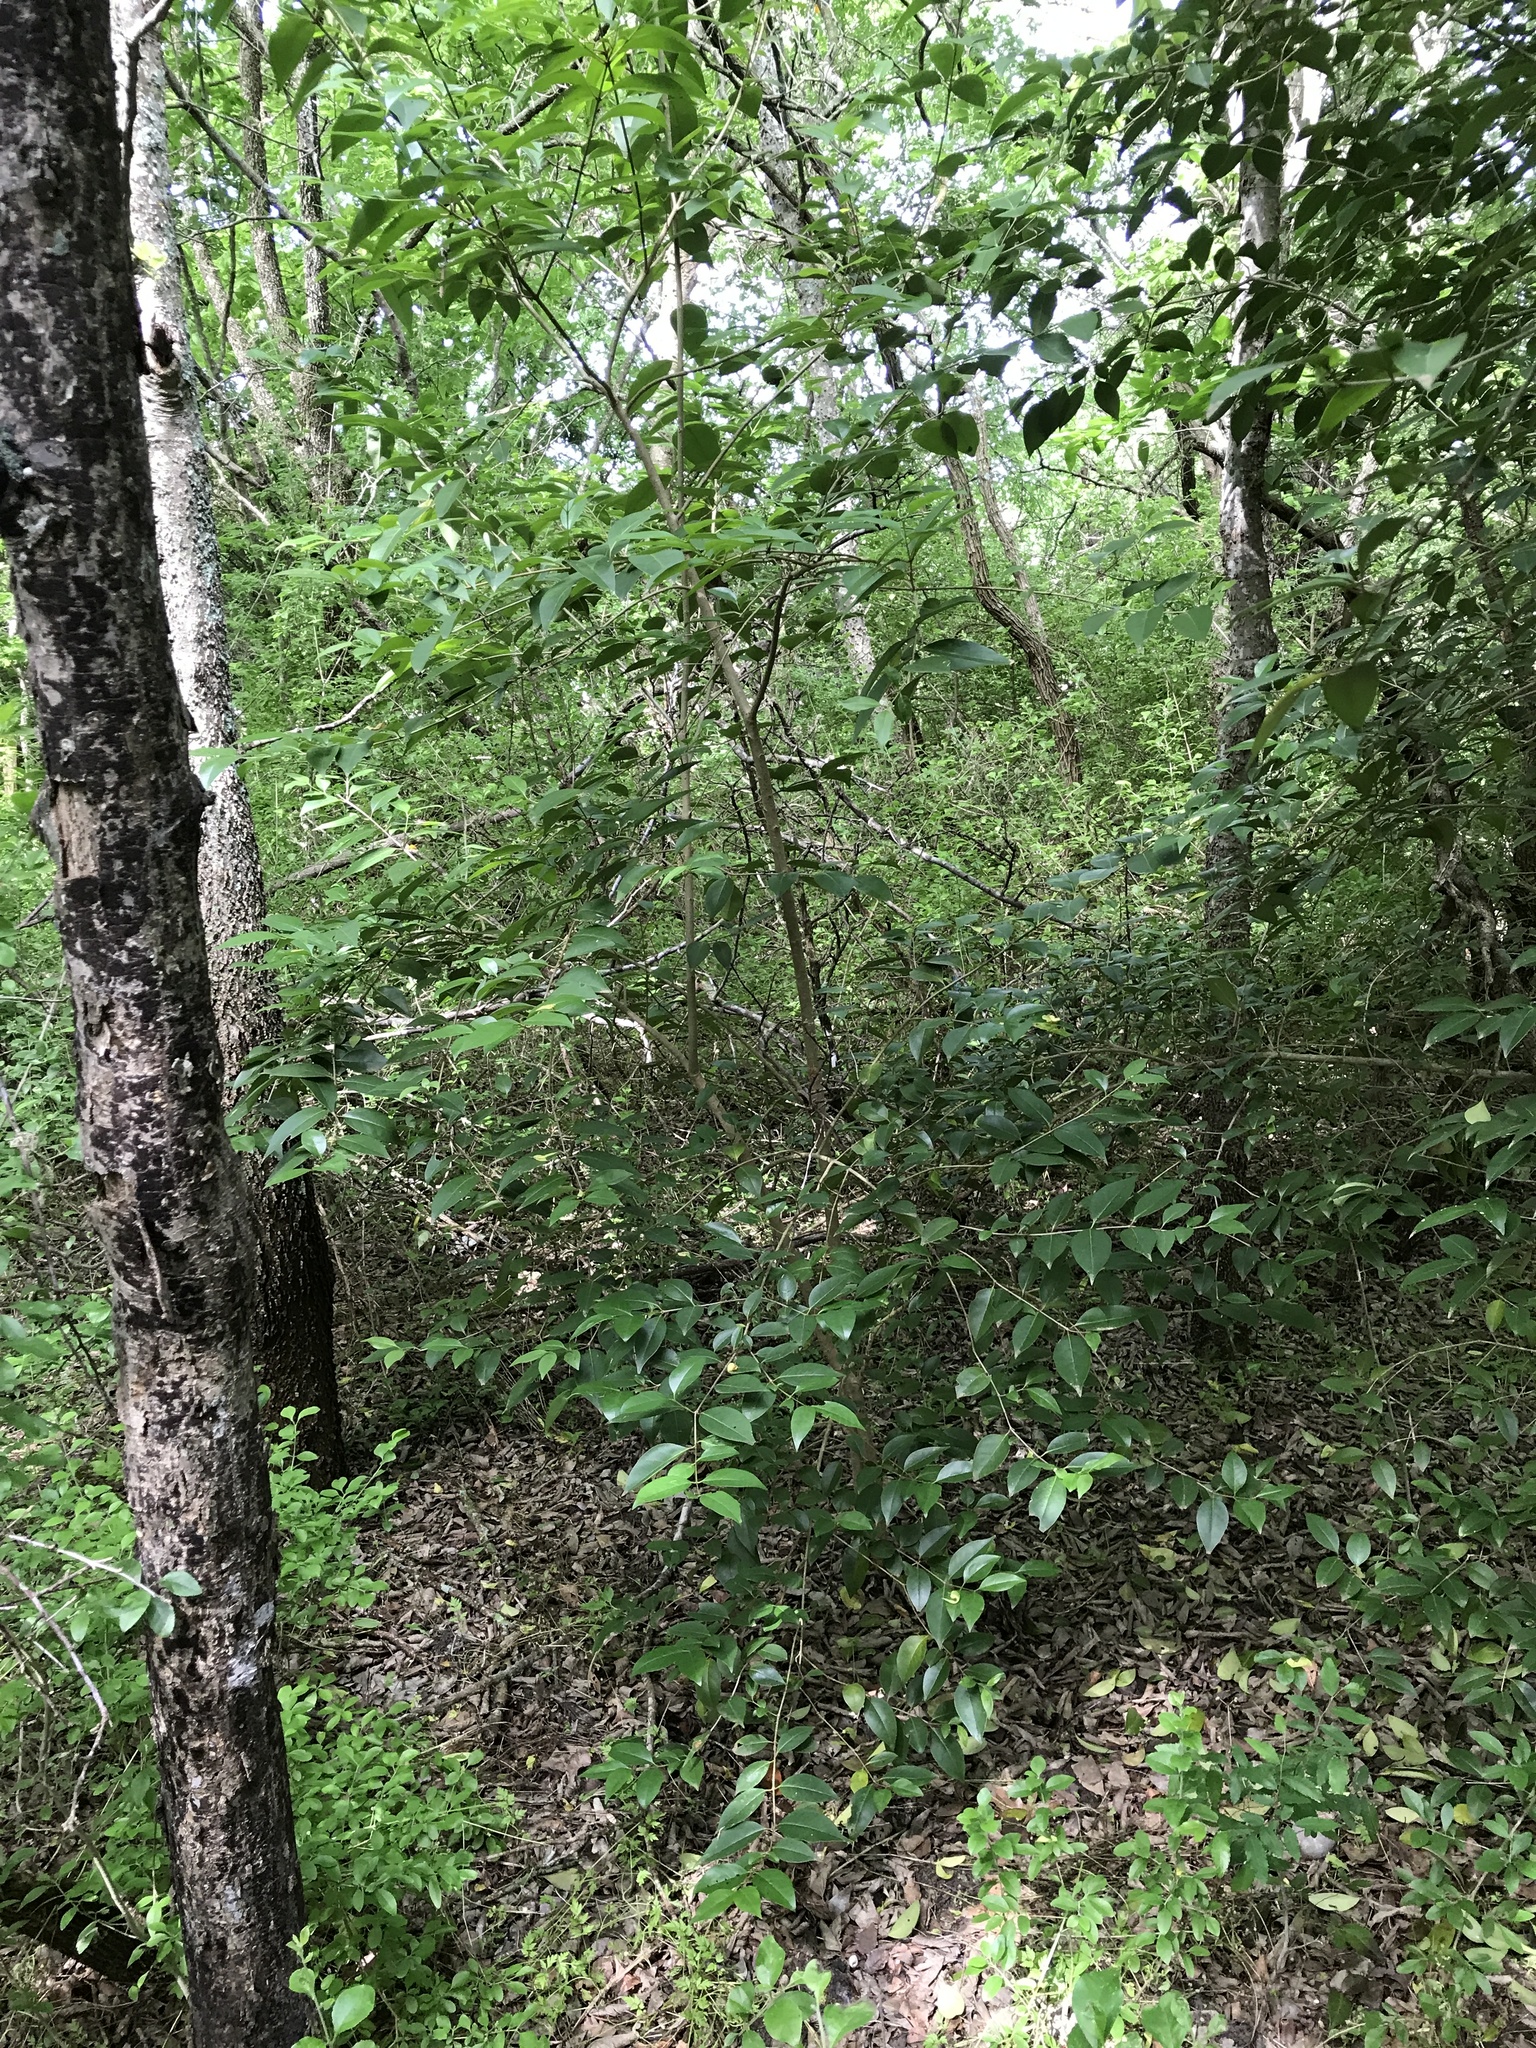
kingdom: Plantae
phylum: Tracheophyta
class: Magnoliopsida
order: Lamiales
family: Oleaceae
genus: Ligustrum
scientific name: Ligustrum lucidum
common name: Glossy privet
